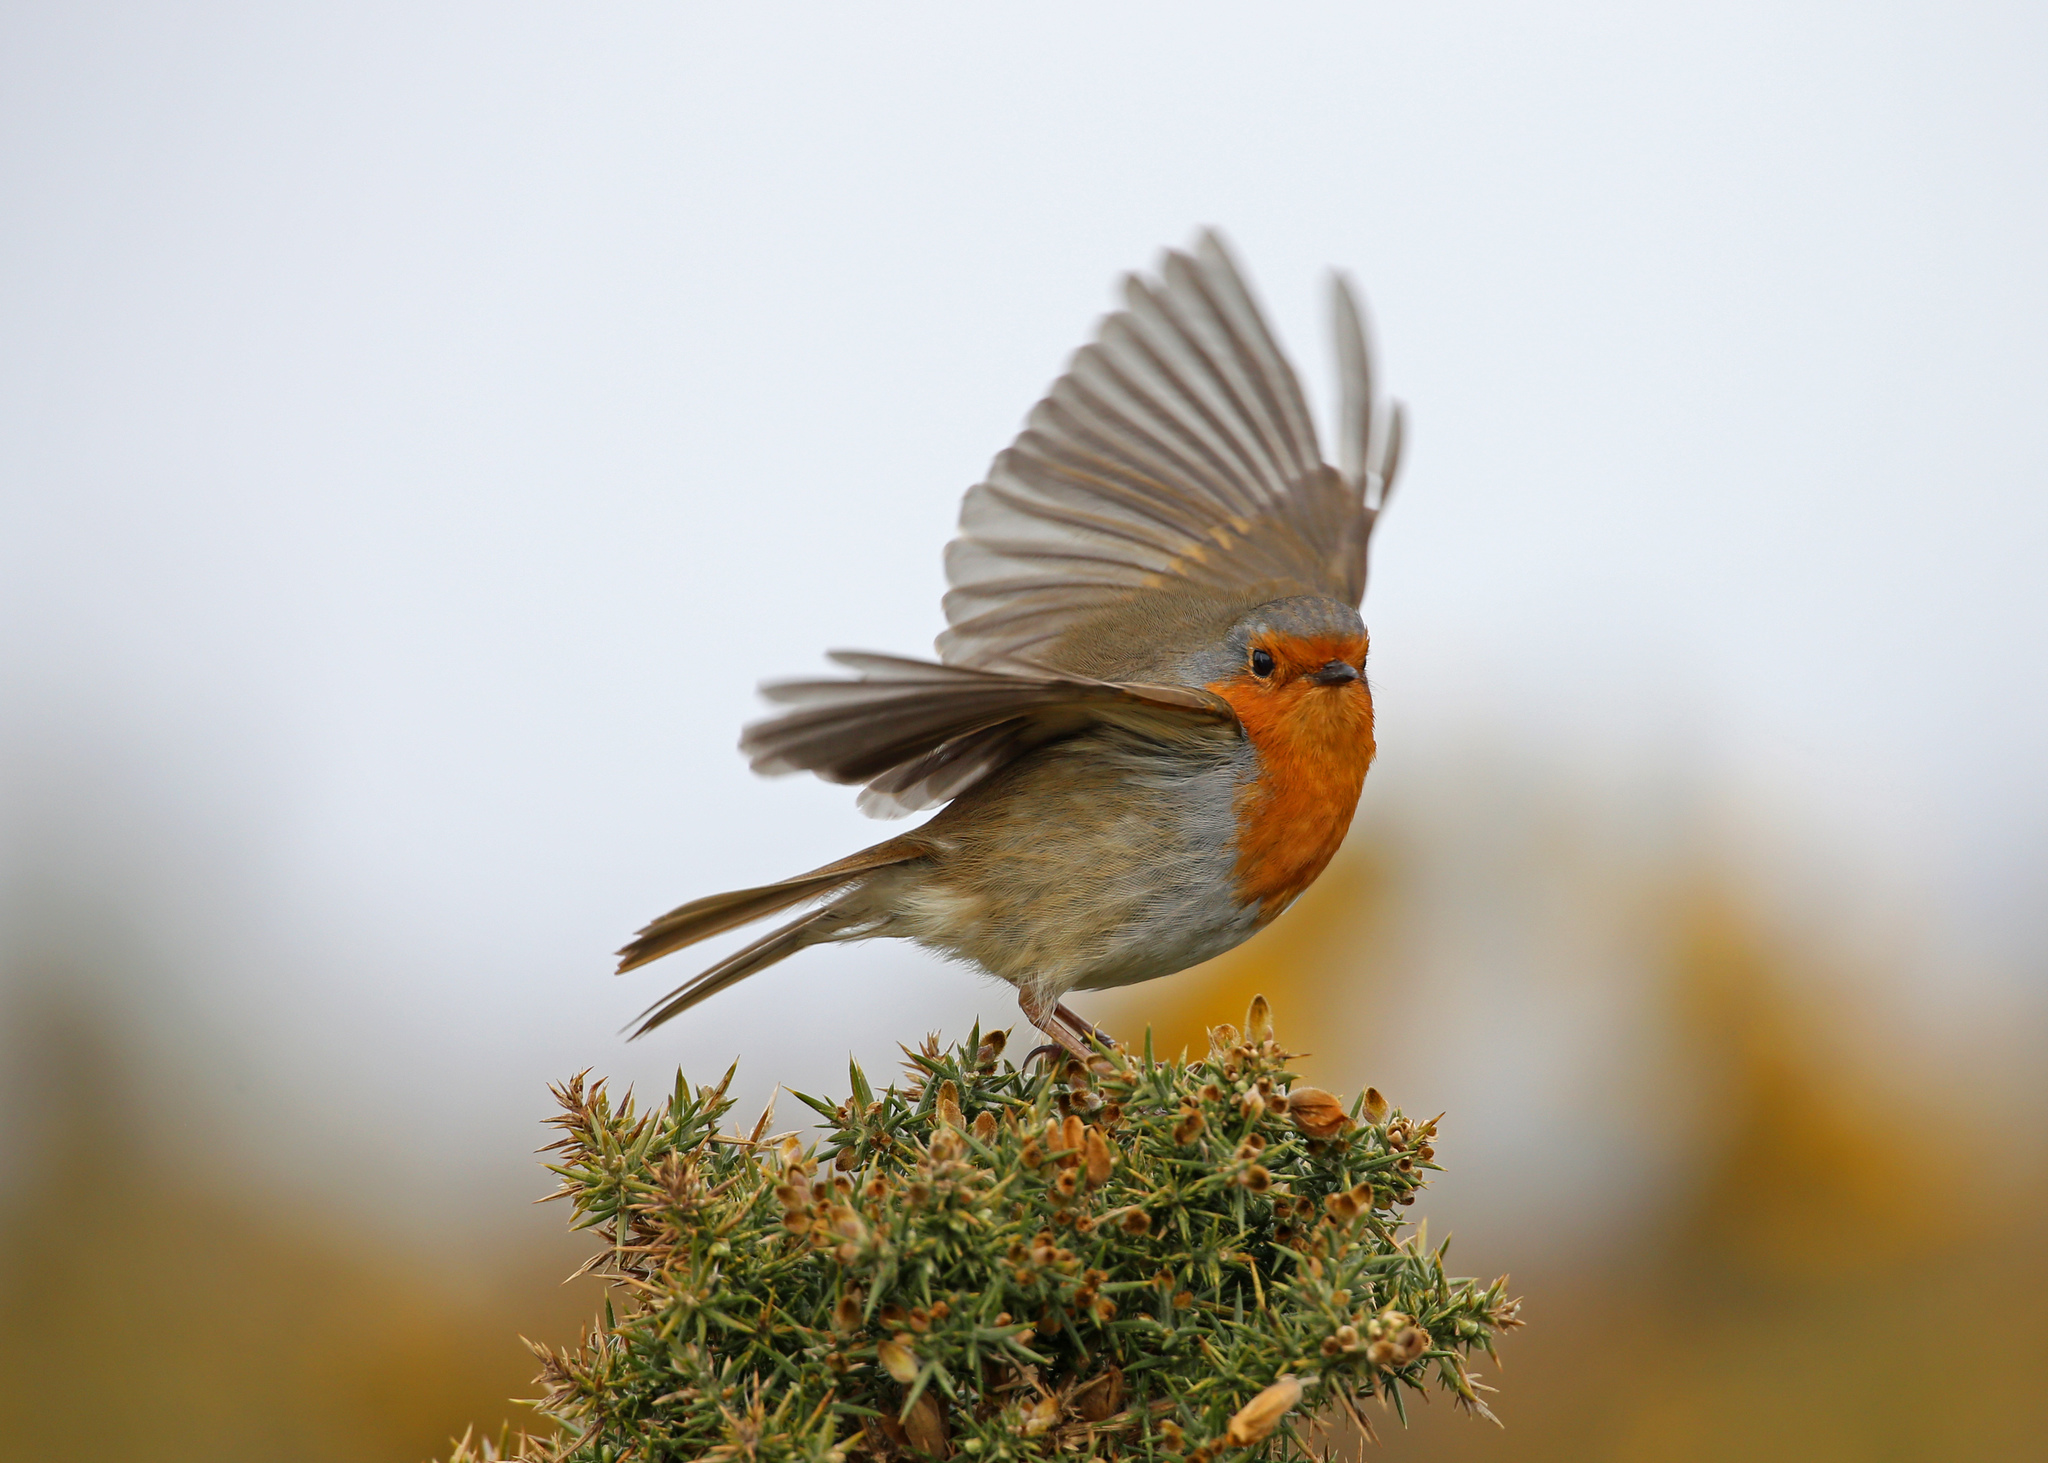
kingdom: Animalia
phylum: Chordata
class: Aves
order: Passeriformes
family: Muscicapidae
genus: Erithacus
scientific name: Erithacus rubecula
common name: European robin
